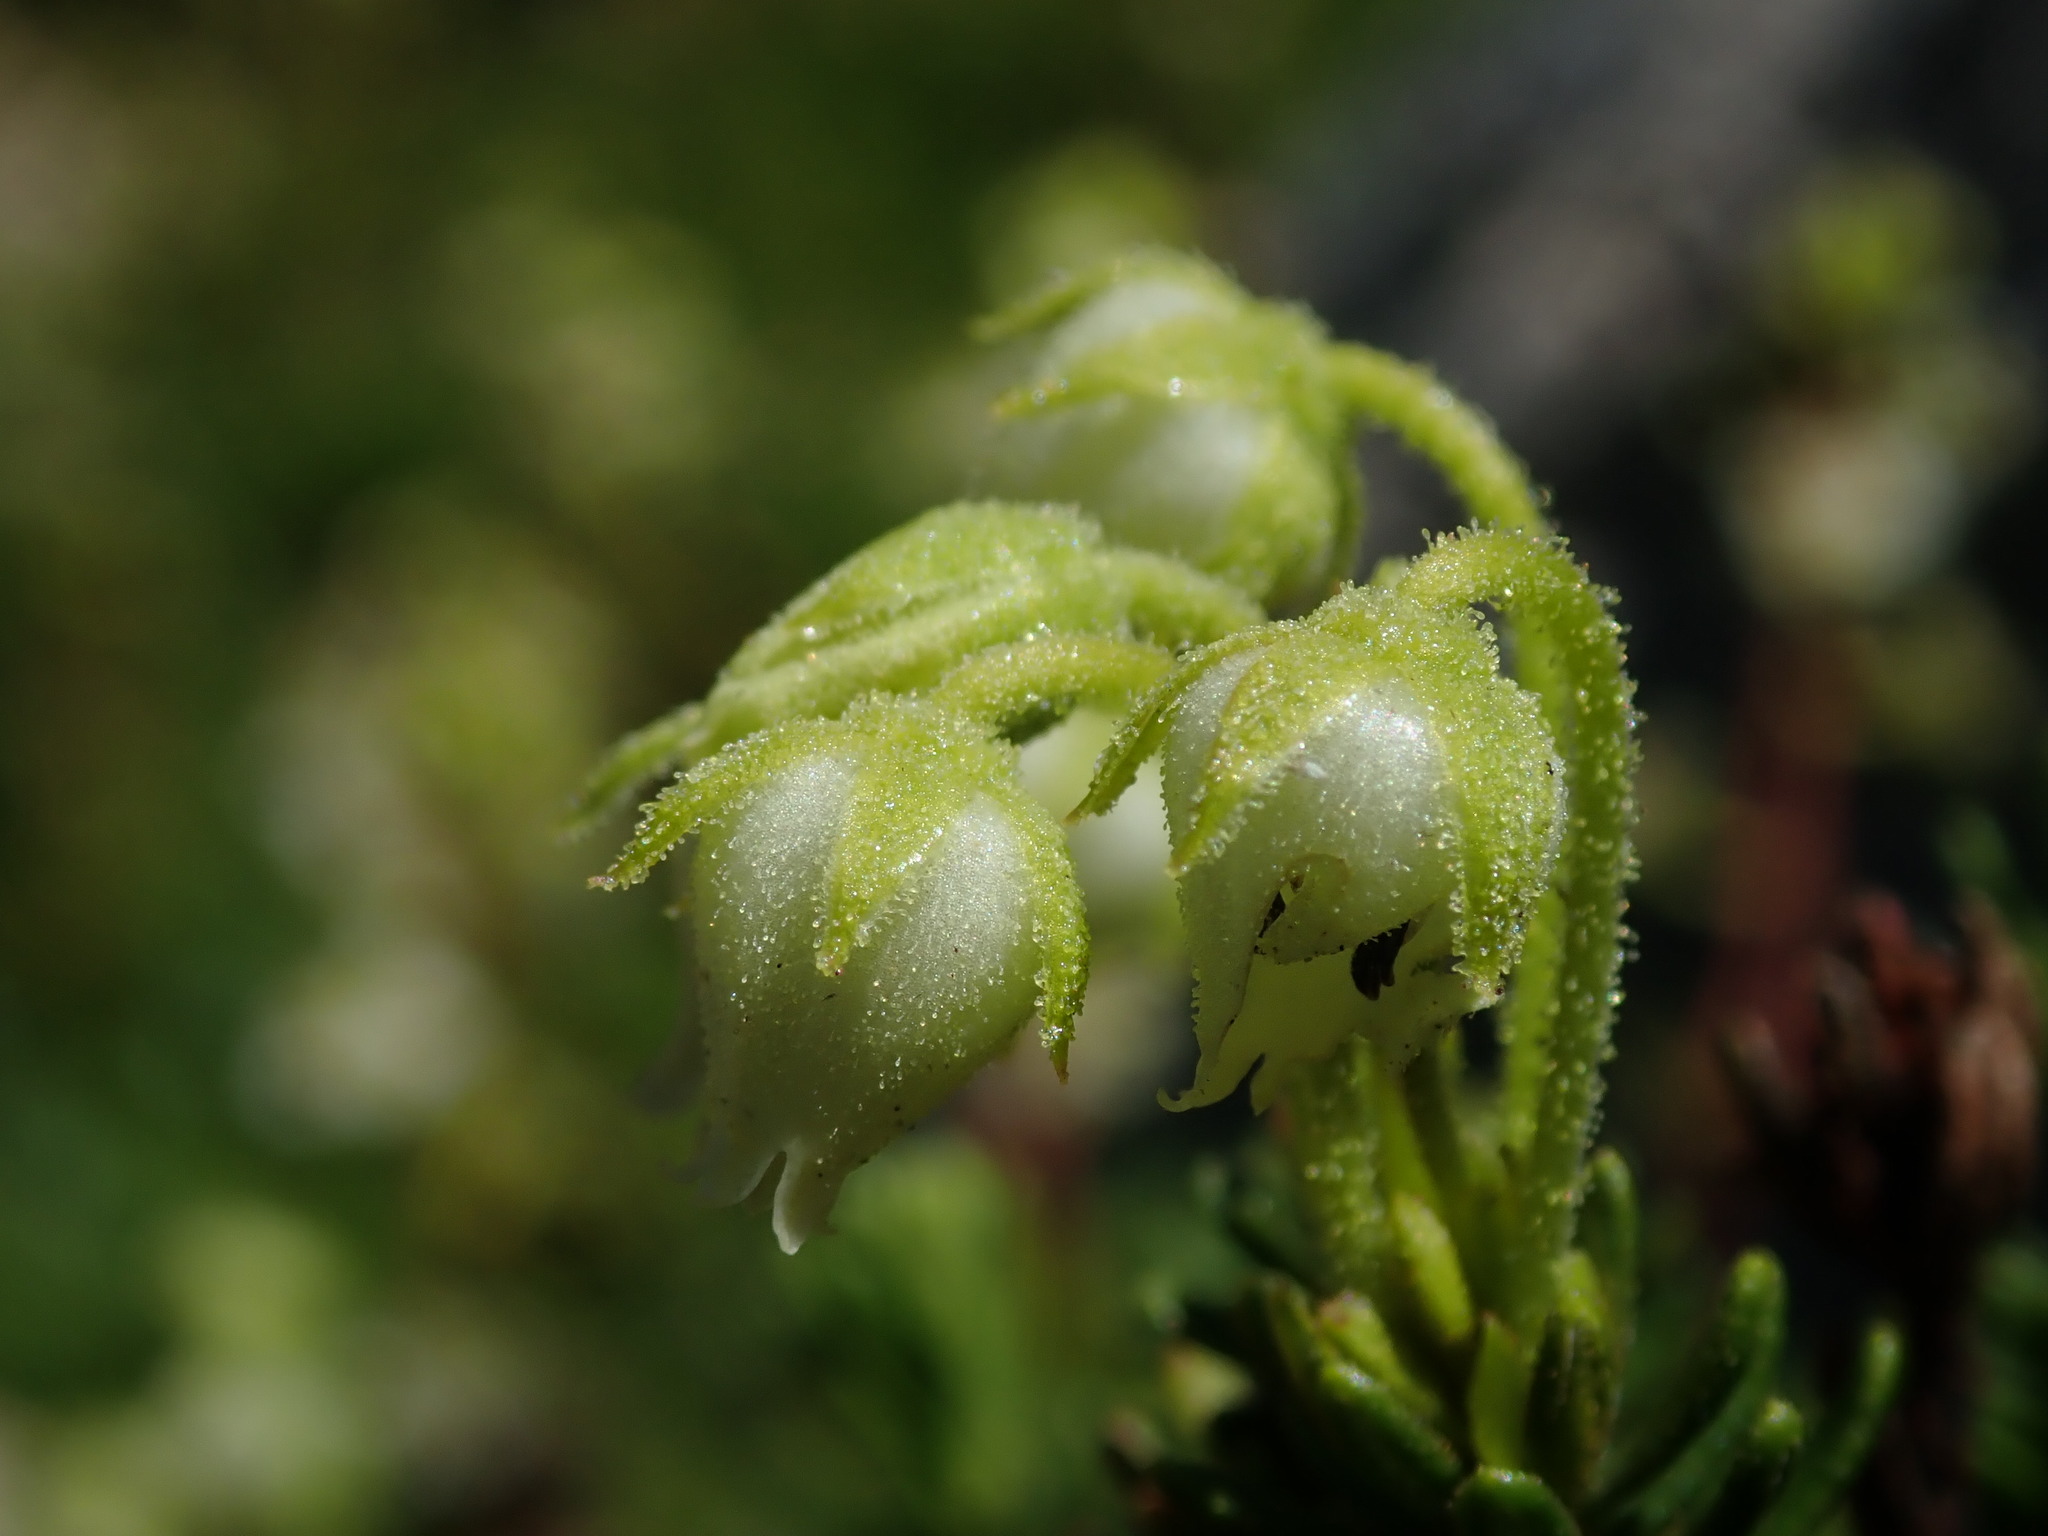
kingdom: Plantae
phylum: Tracheophyta
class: Magnoliopsida
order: Ericales
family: Ericaceae
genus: Phyllodoce
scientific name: Phyllodoce glanduliflora
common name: Cream mountain heather
